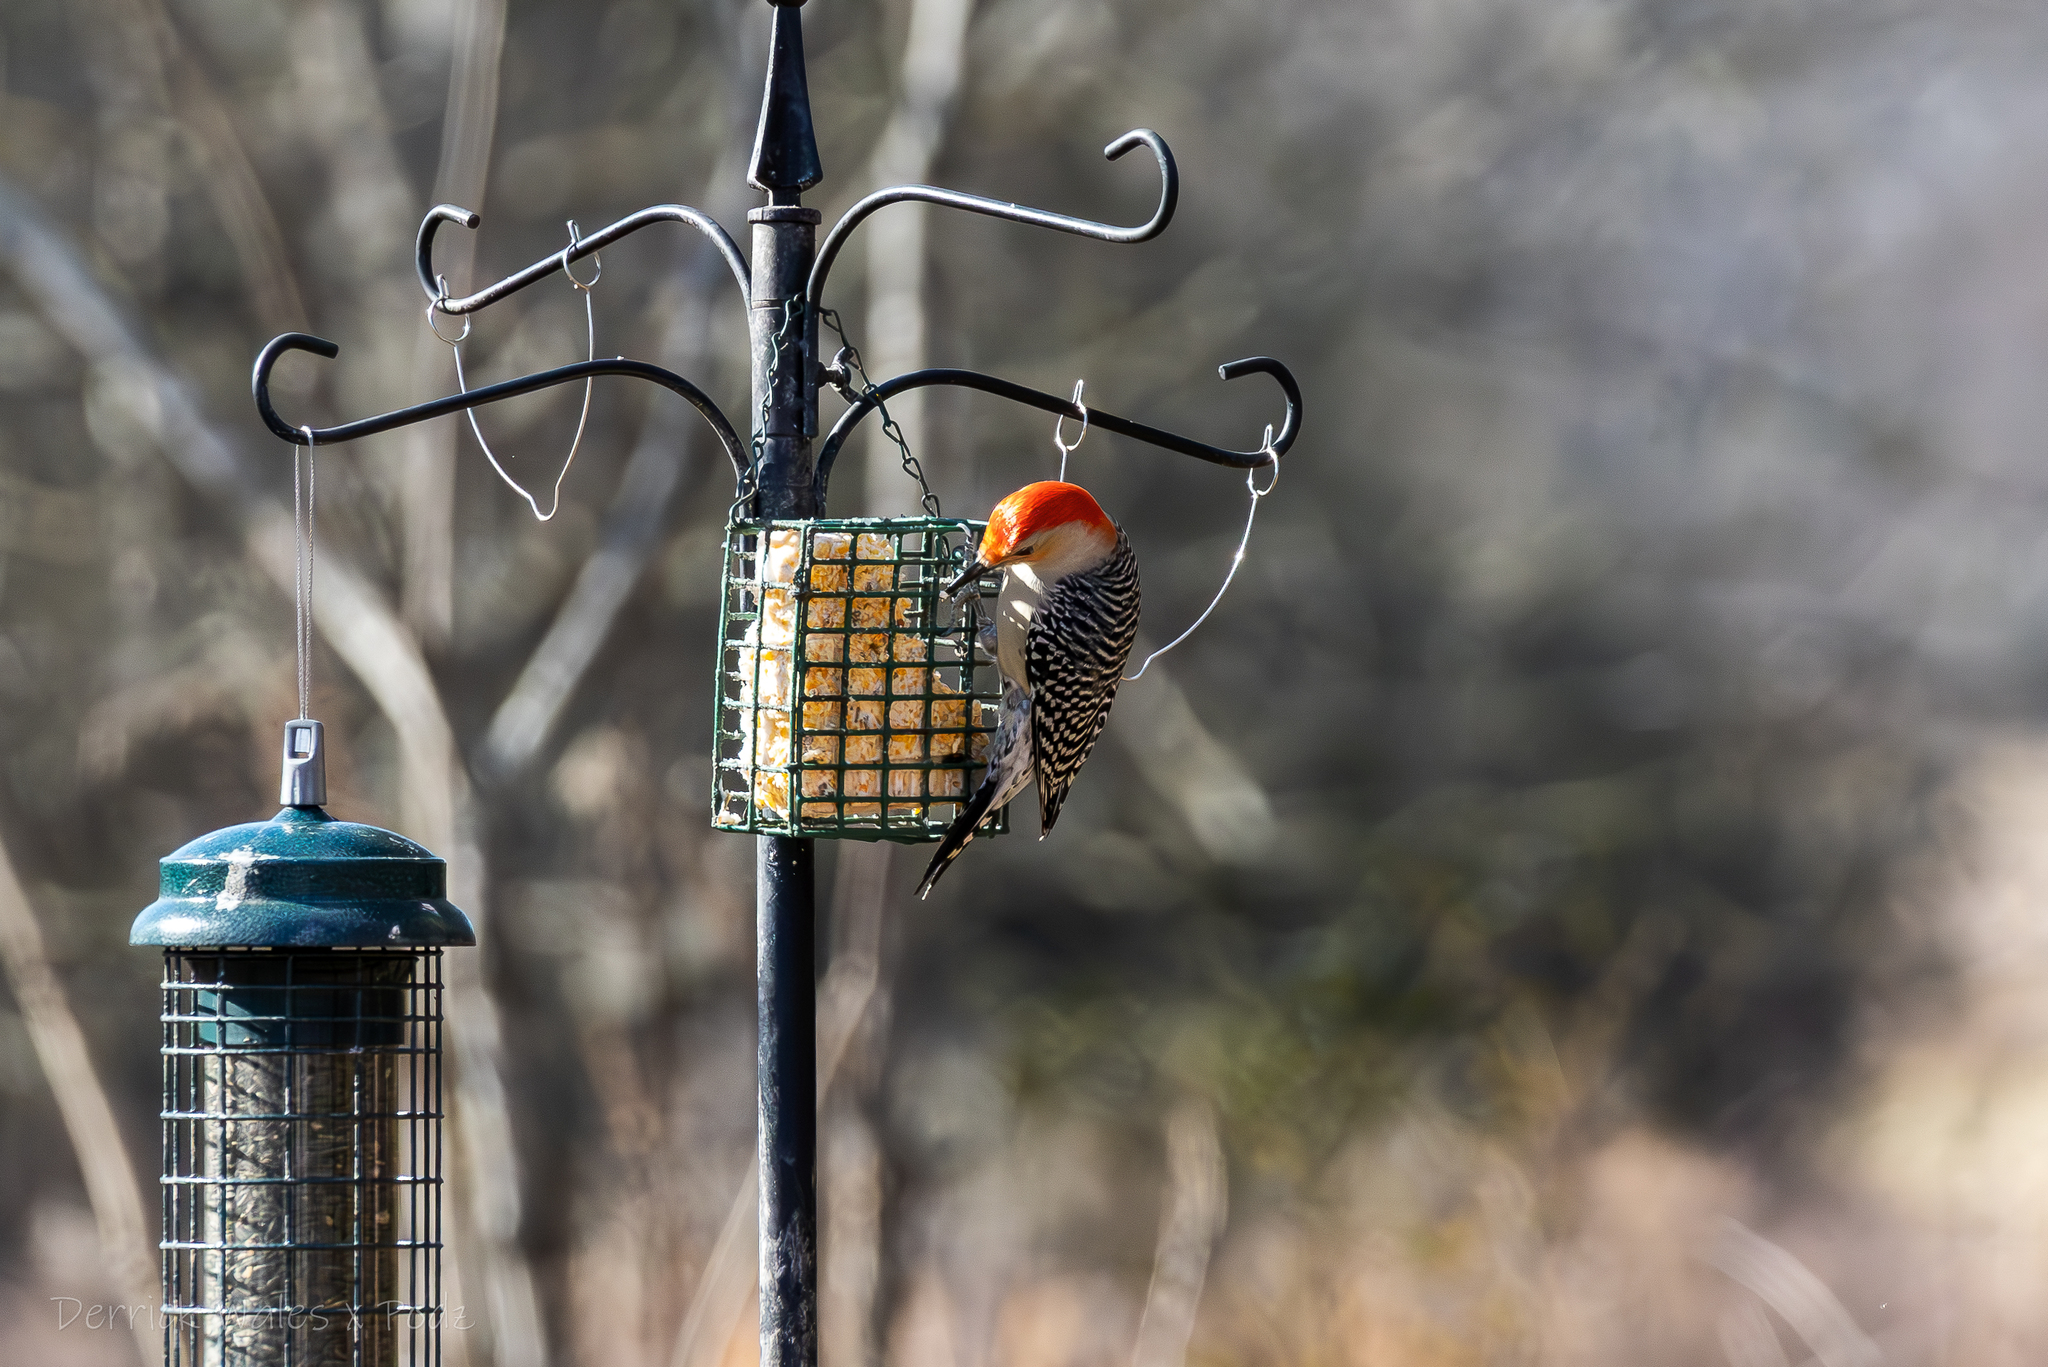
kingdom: Animalia
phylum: Chordata
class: Aves
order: Piciformes
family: Picidae
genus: Melanerpes
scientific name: Melanerpes carolinus
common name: Red-bellied woodpecker
